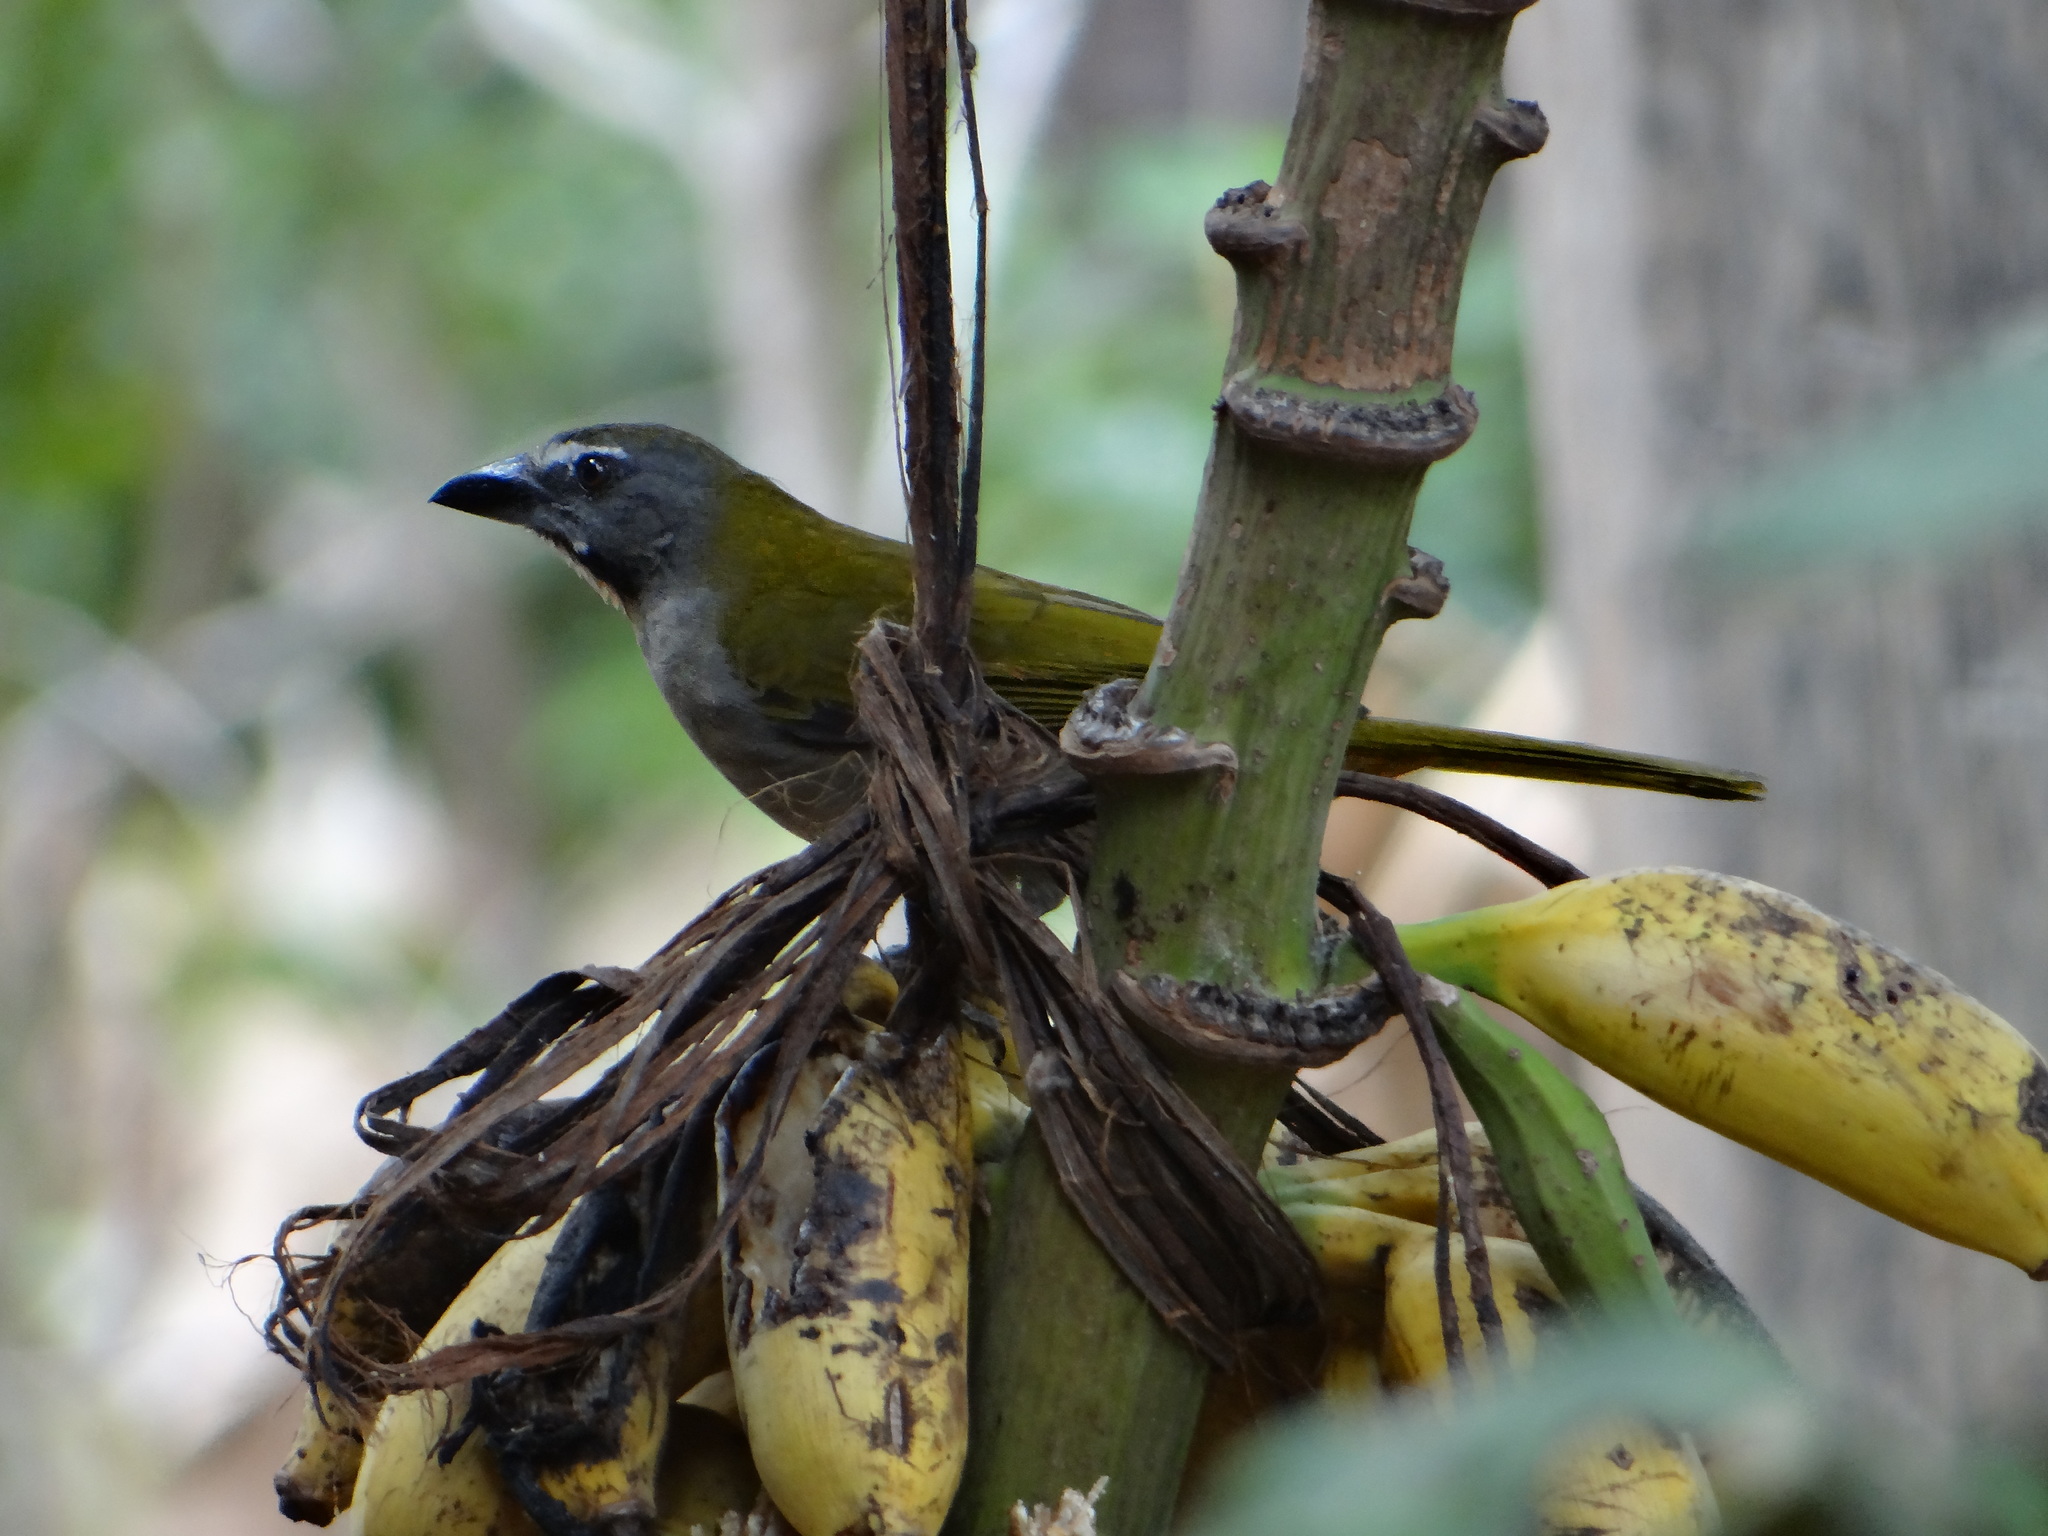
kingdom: Animalia
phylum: Chordata
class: Aves
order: Passeriformes
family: Thraupidae
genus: Saltator
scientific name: Saltator maximus
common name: Buff-throated saltator
